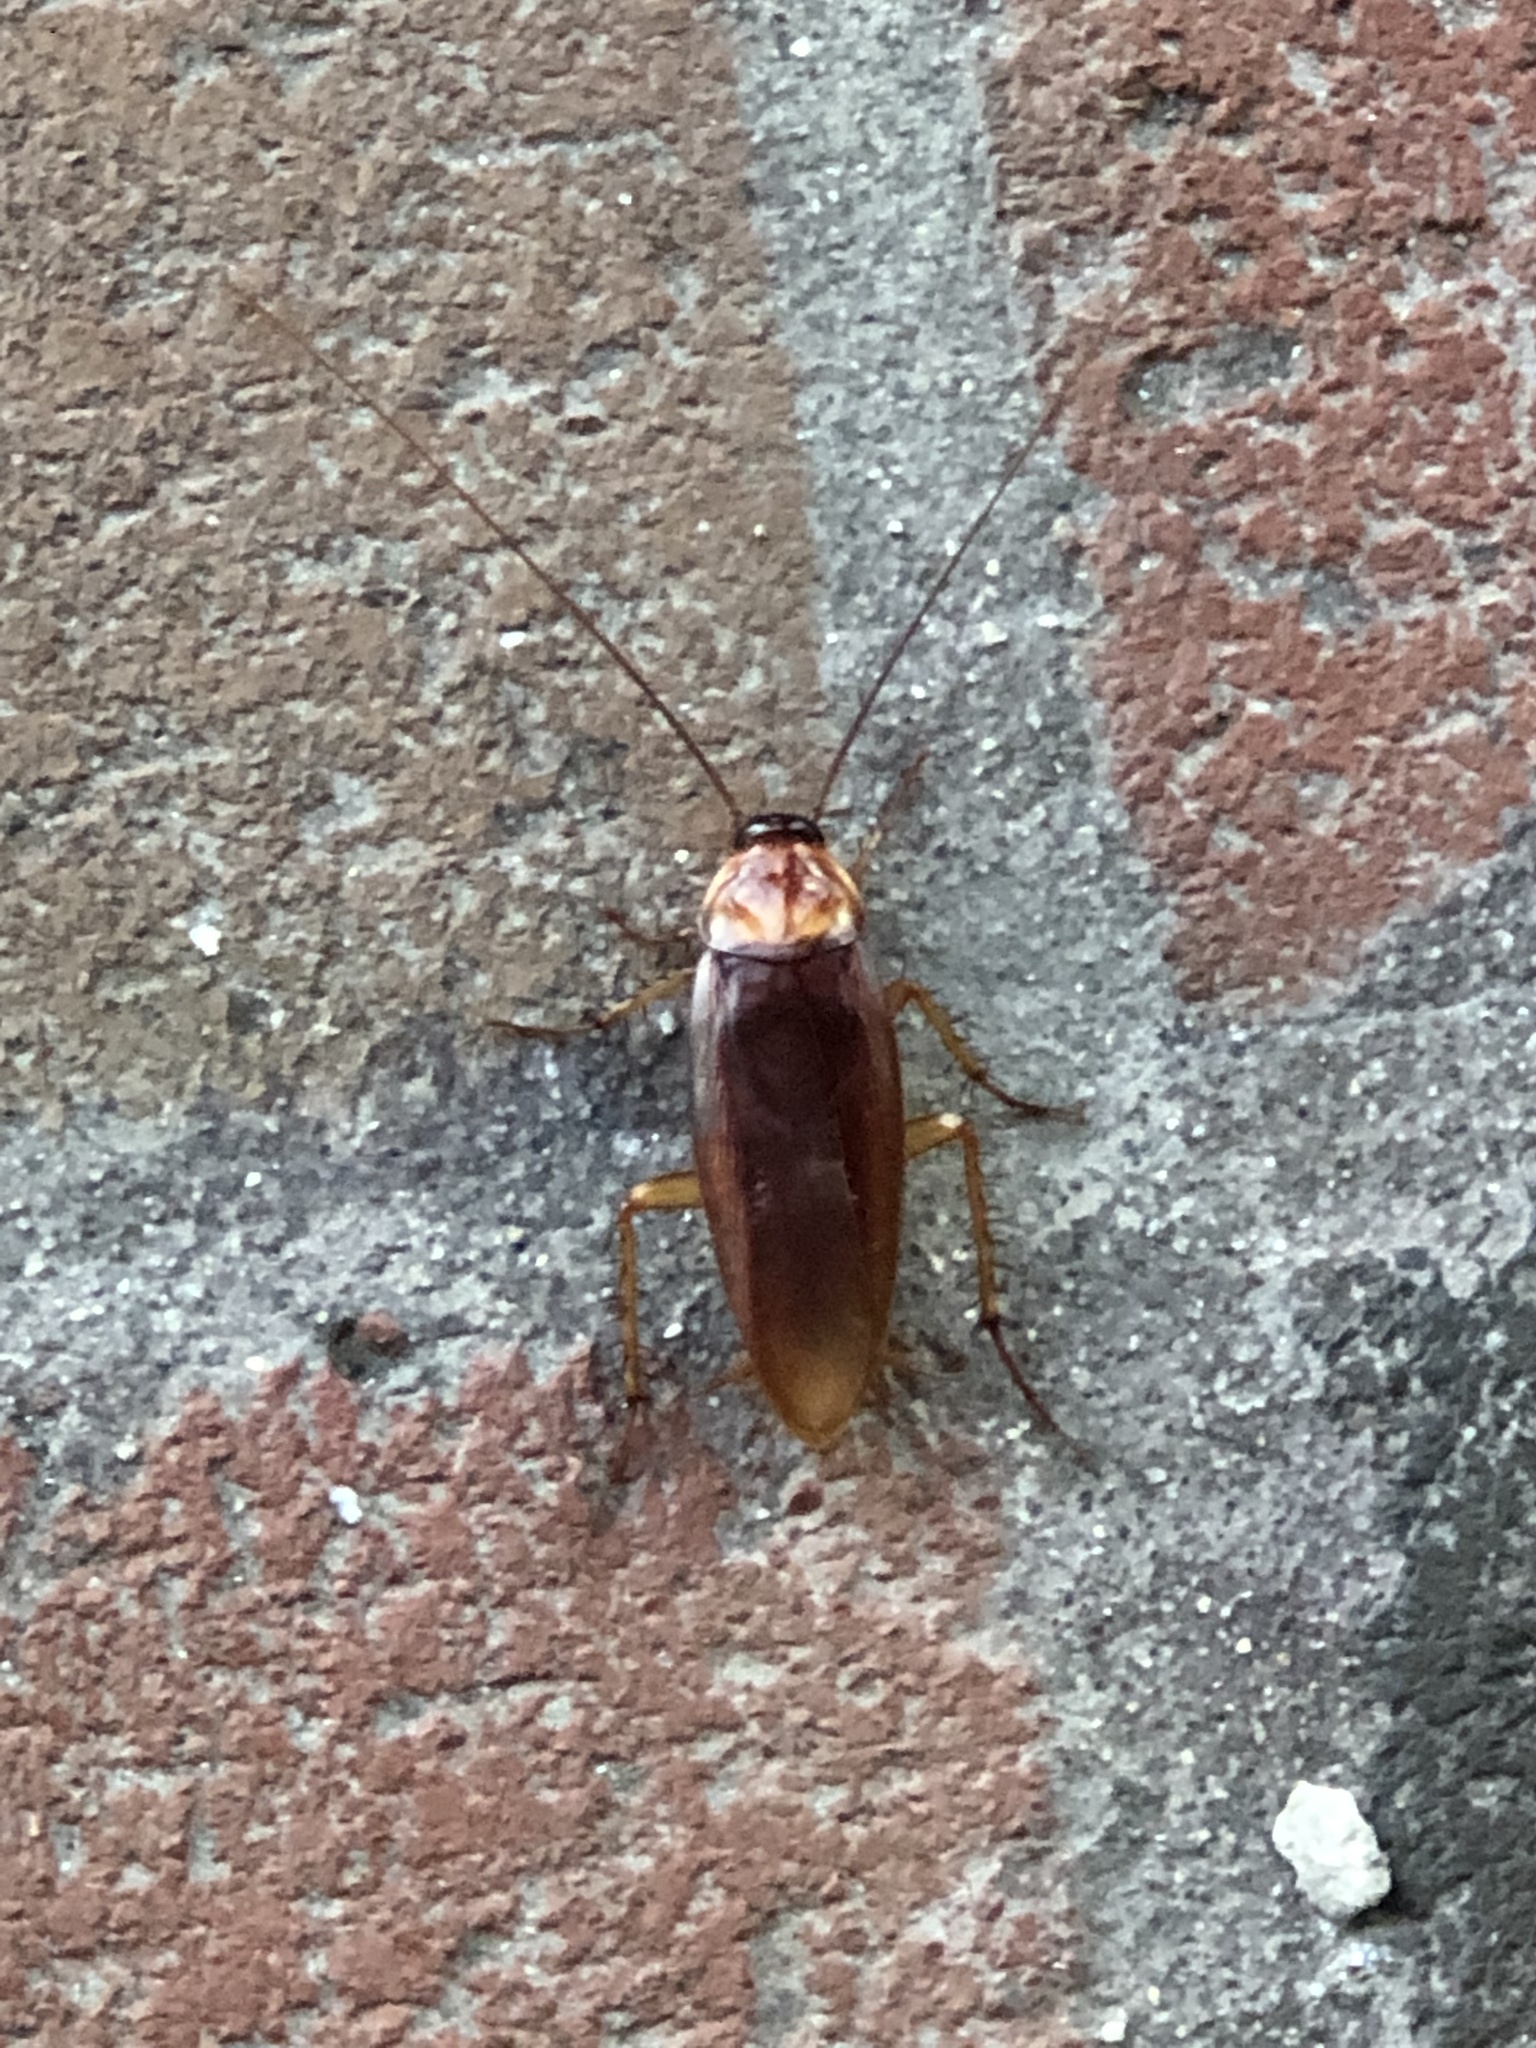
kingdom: Animalia
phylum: Arthropoda
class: Insecta
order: Blattodea
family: Blattidae
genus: Periplaneta
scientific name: Periplaneta americana
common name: American cockroach
